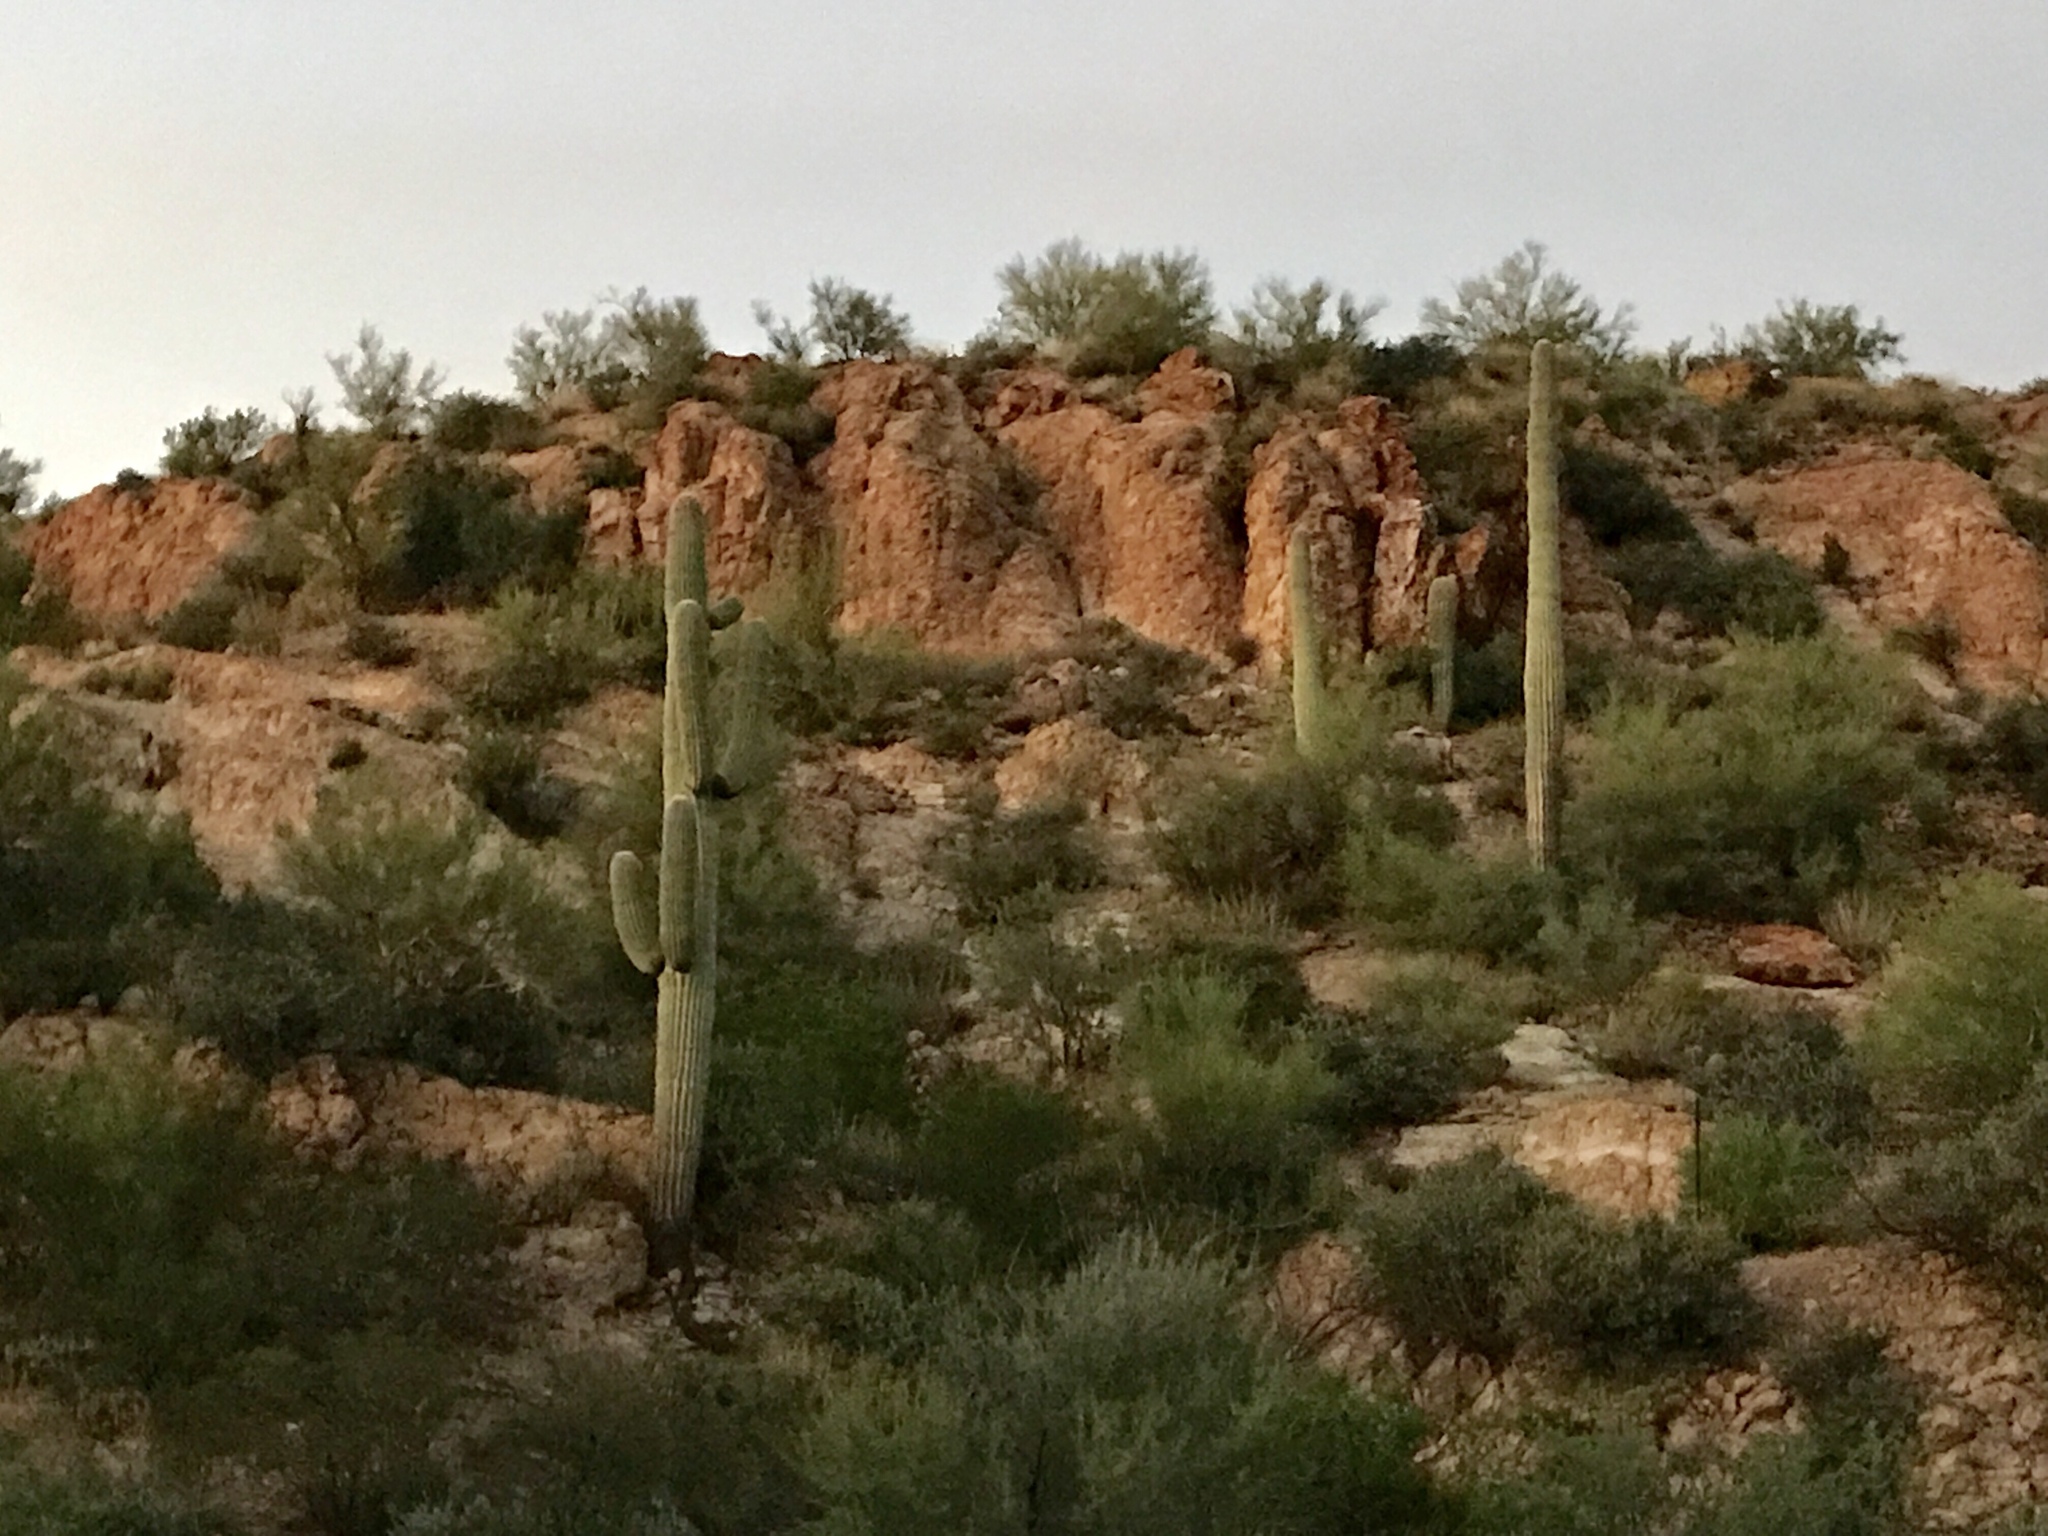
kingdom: Plantae
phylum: Tracheophyta
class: Magnoliopsida
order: Caryophyllales
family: Cactaceae
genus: Carnegiea
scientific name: Carnegiea gigantea
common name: Saguaro
